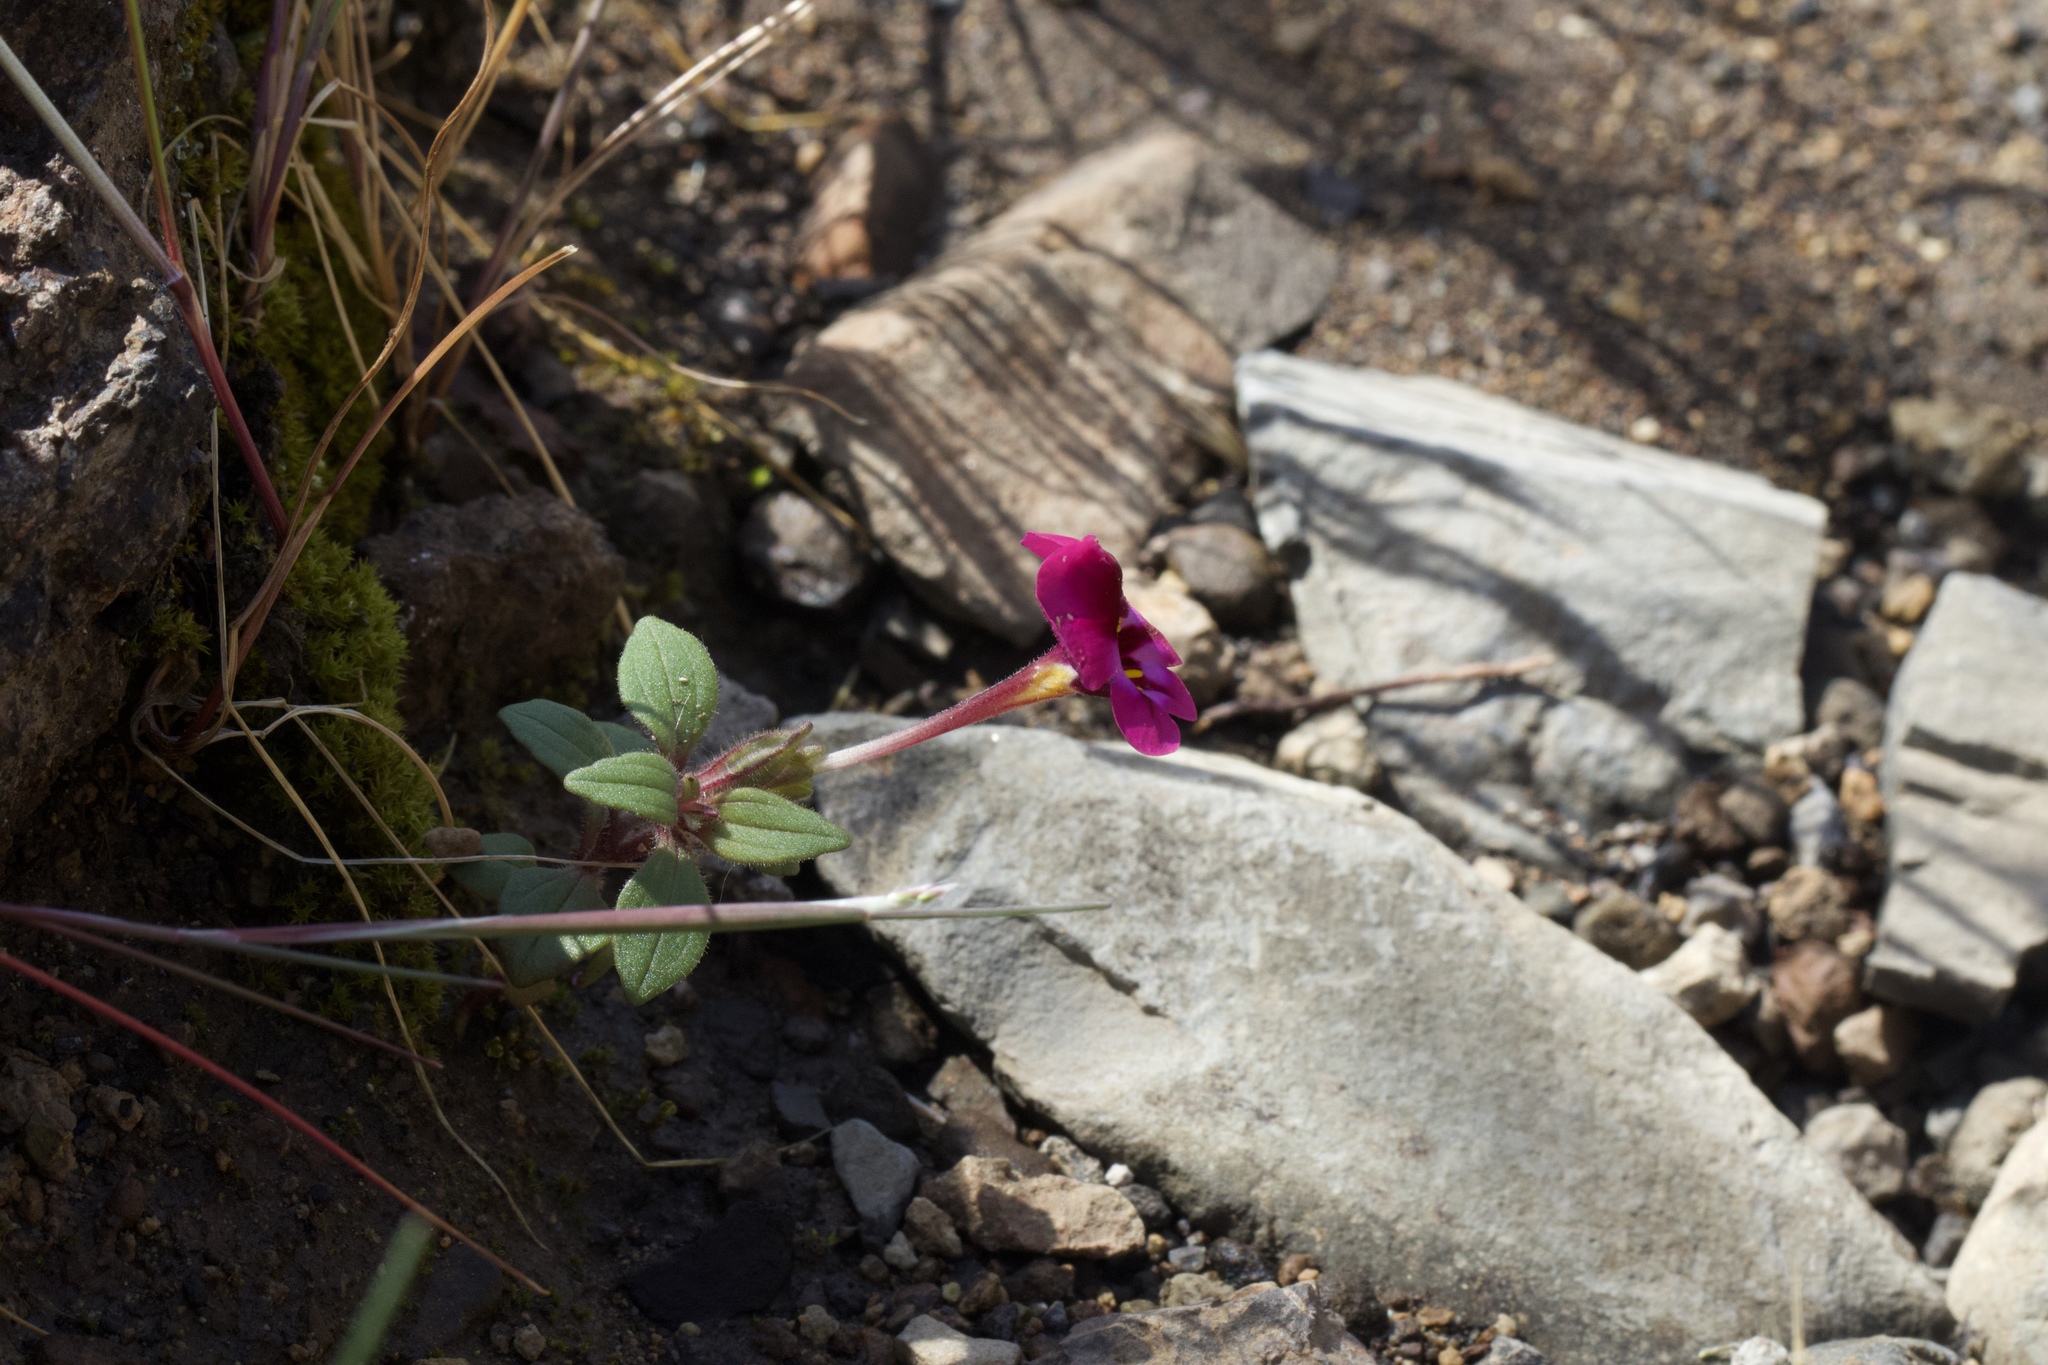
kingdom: Plantae
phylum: Tracheophyta
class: Magnoliopsida
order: Lamiales
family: Phrymaceae
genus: Diplacus
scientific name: Diplacus kelloggii
